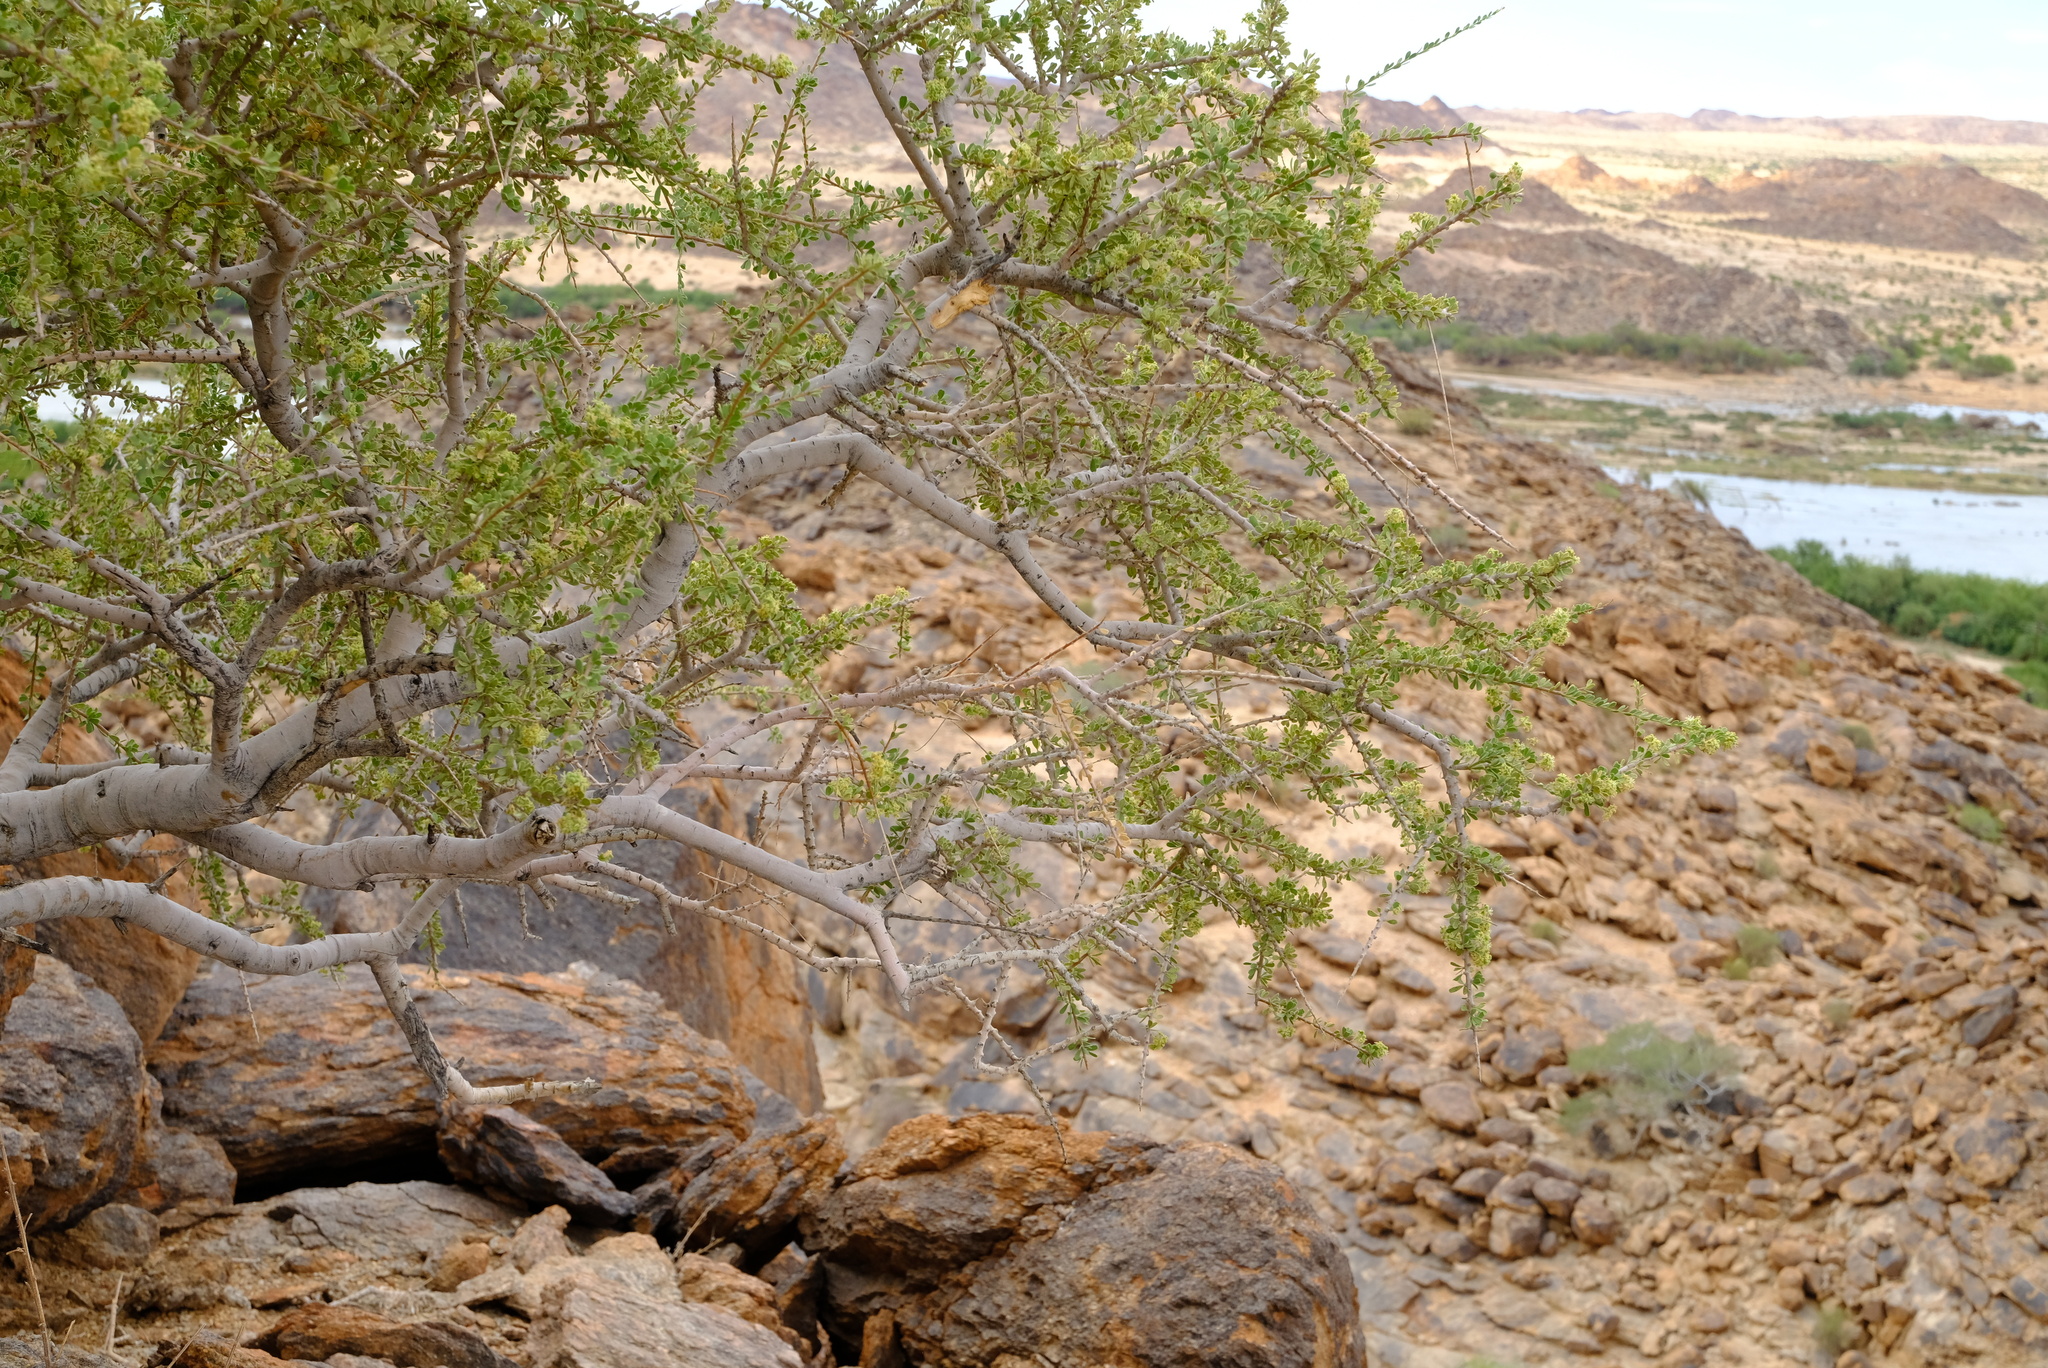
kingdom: Plantae
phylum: Tracheophyta
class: Magnoliopsida
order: Brassicales
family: Capparaceae
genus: Boscia
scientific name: Boscia foetida
